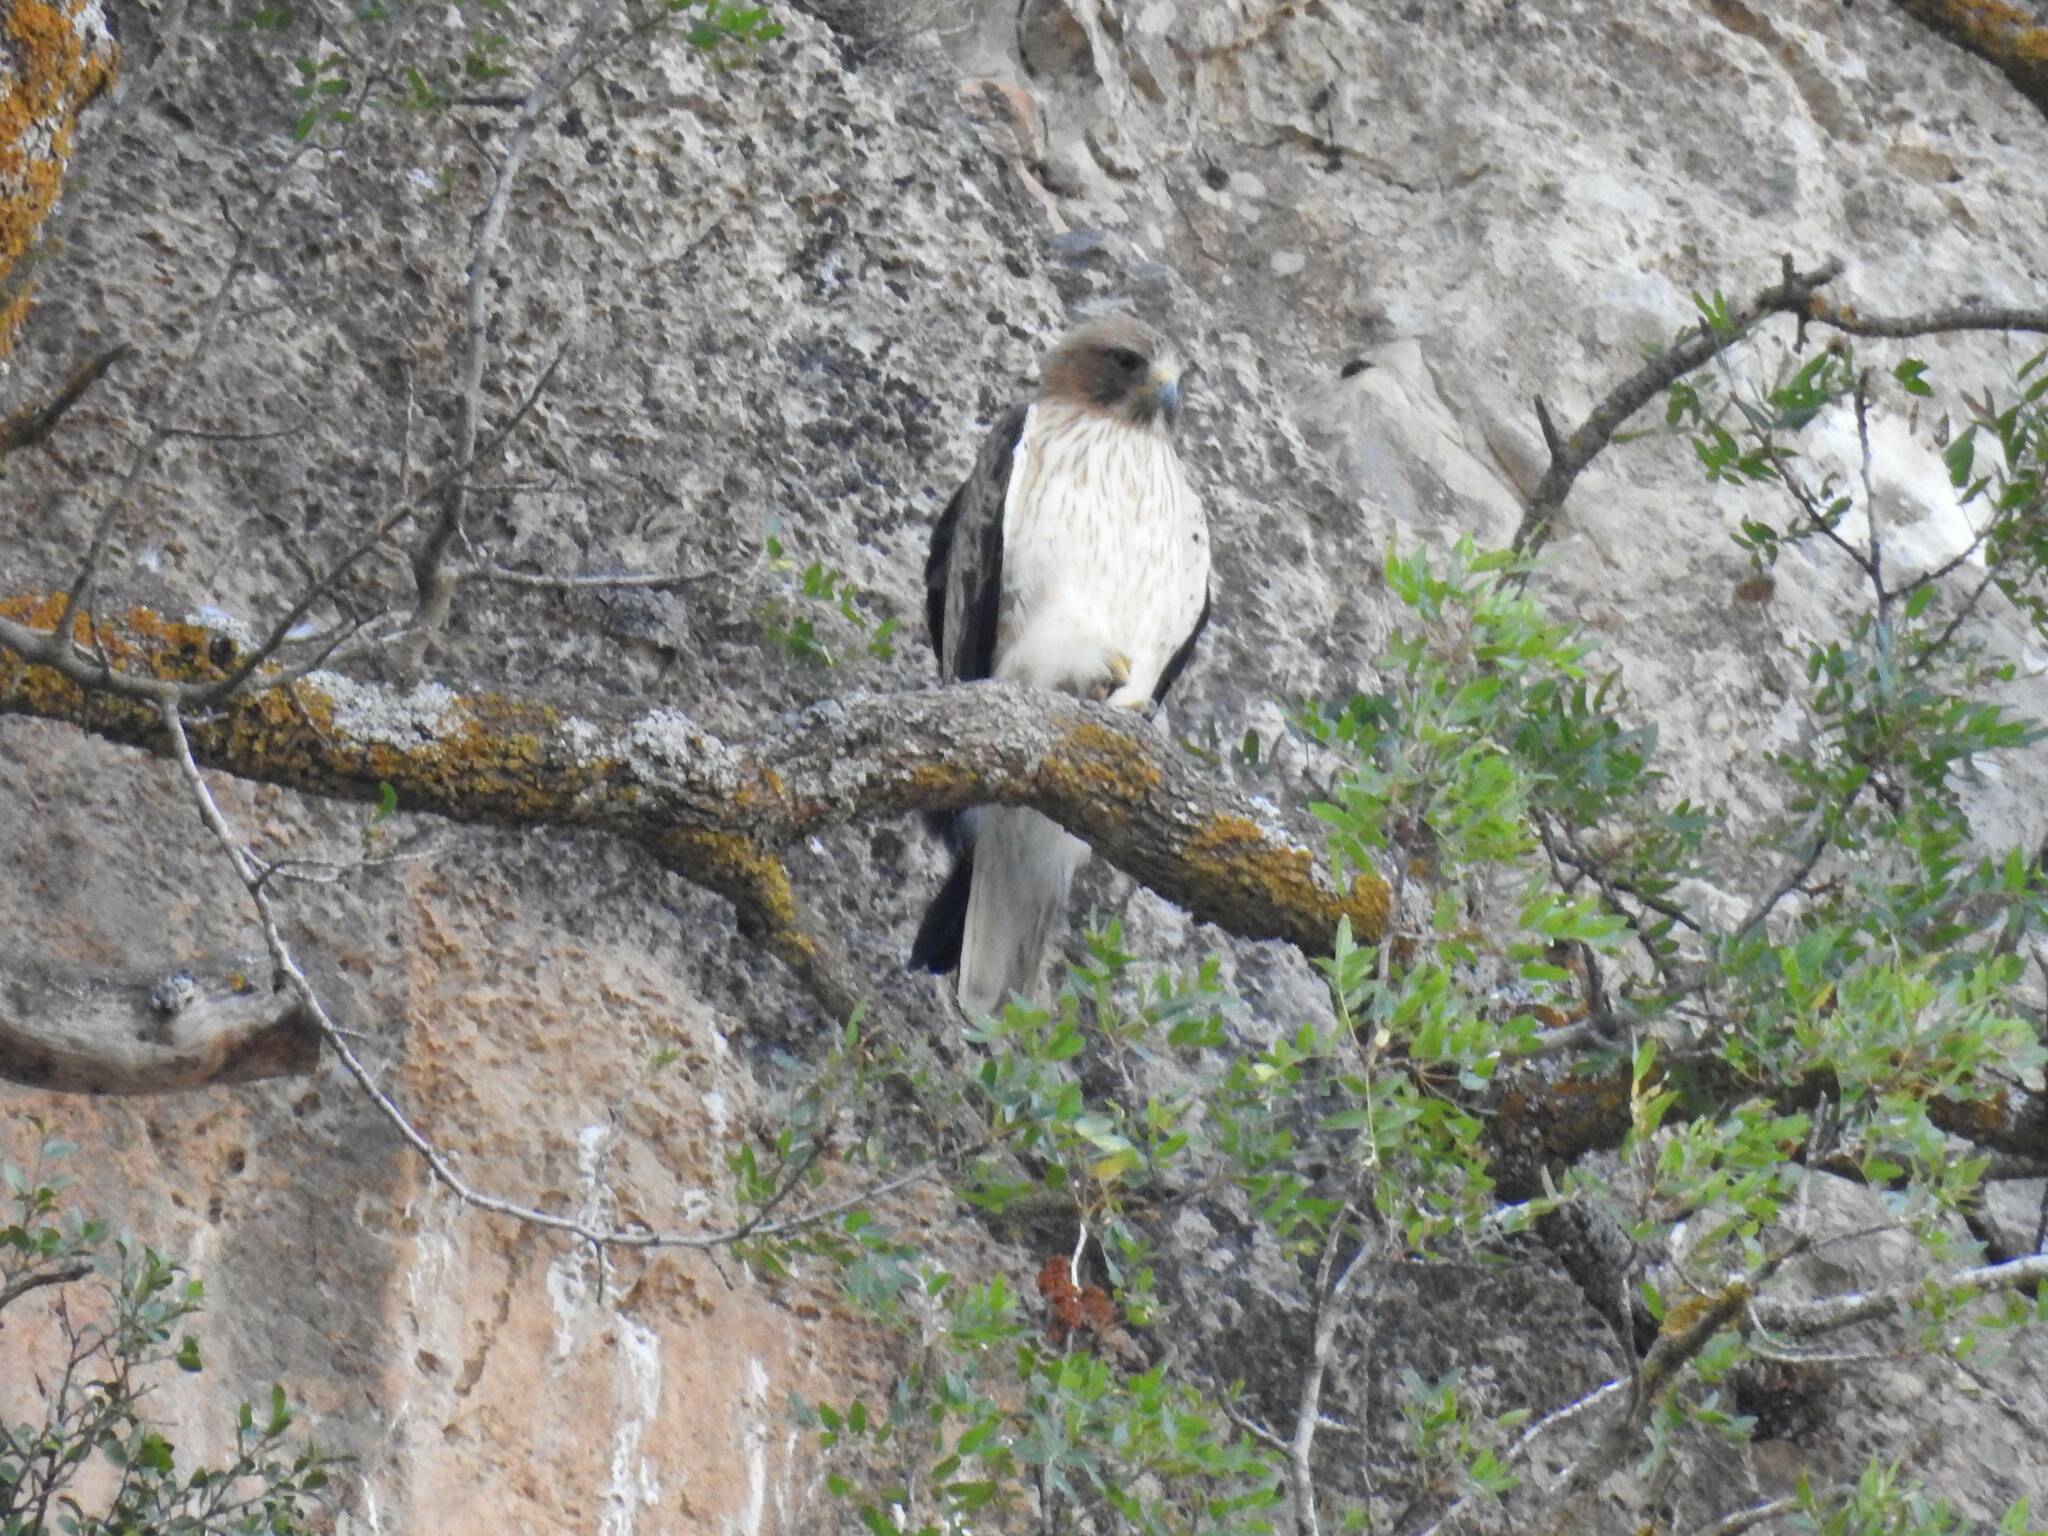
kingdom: Animalia
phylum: Chordata
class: Aves
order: Accipitriformes
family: Accipitridae
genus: Hieraaetus
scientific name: Hieraaetus pennatus
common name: Booted eagle
